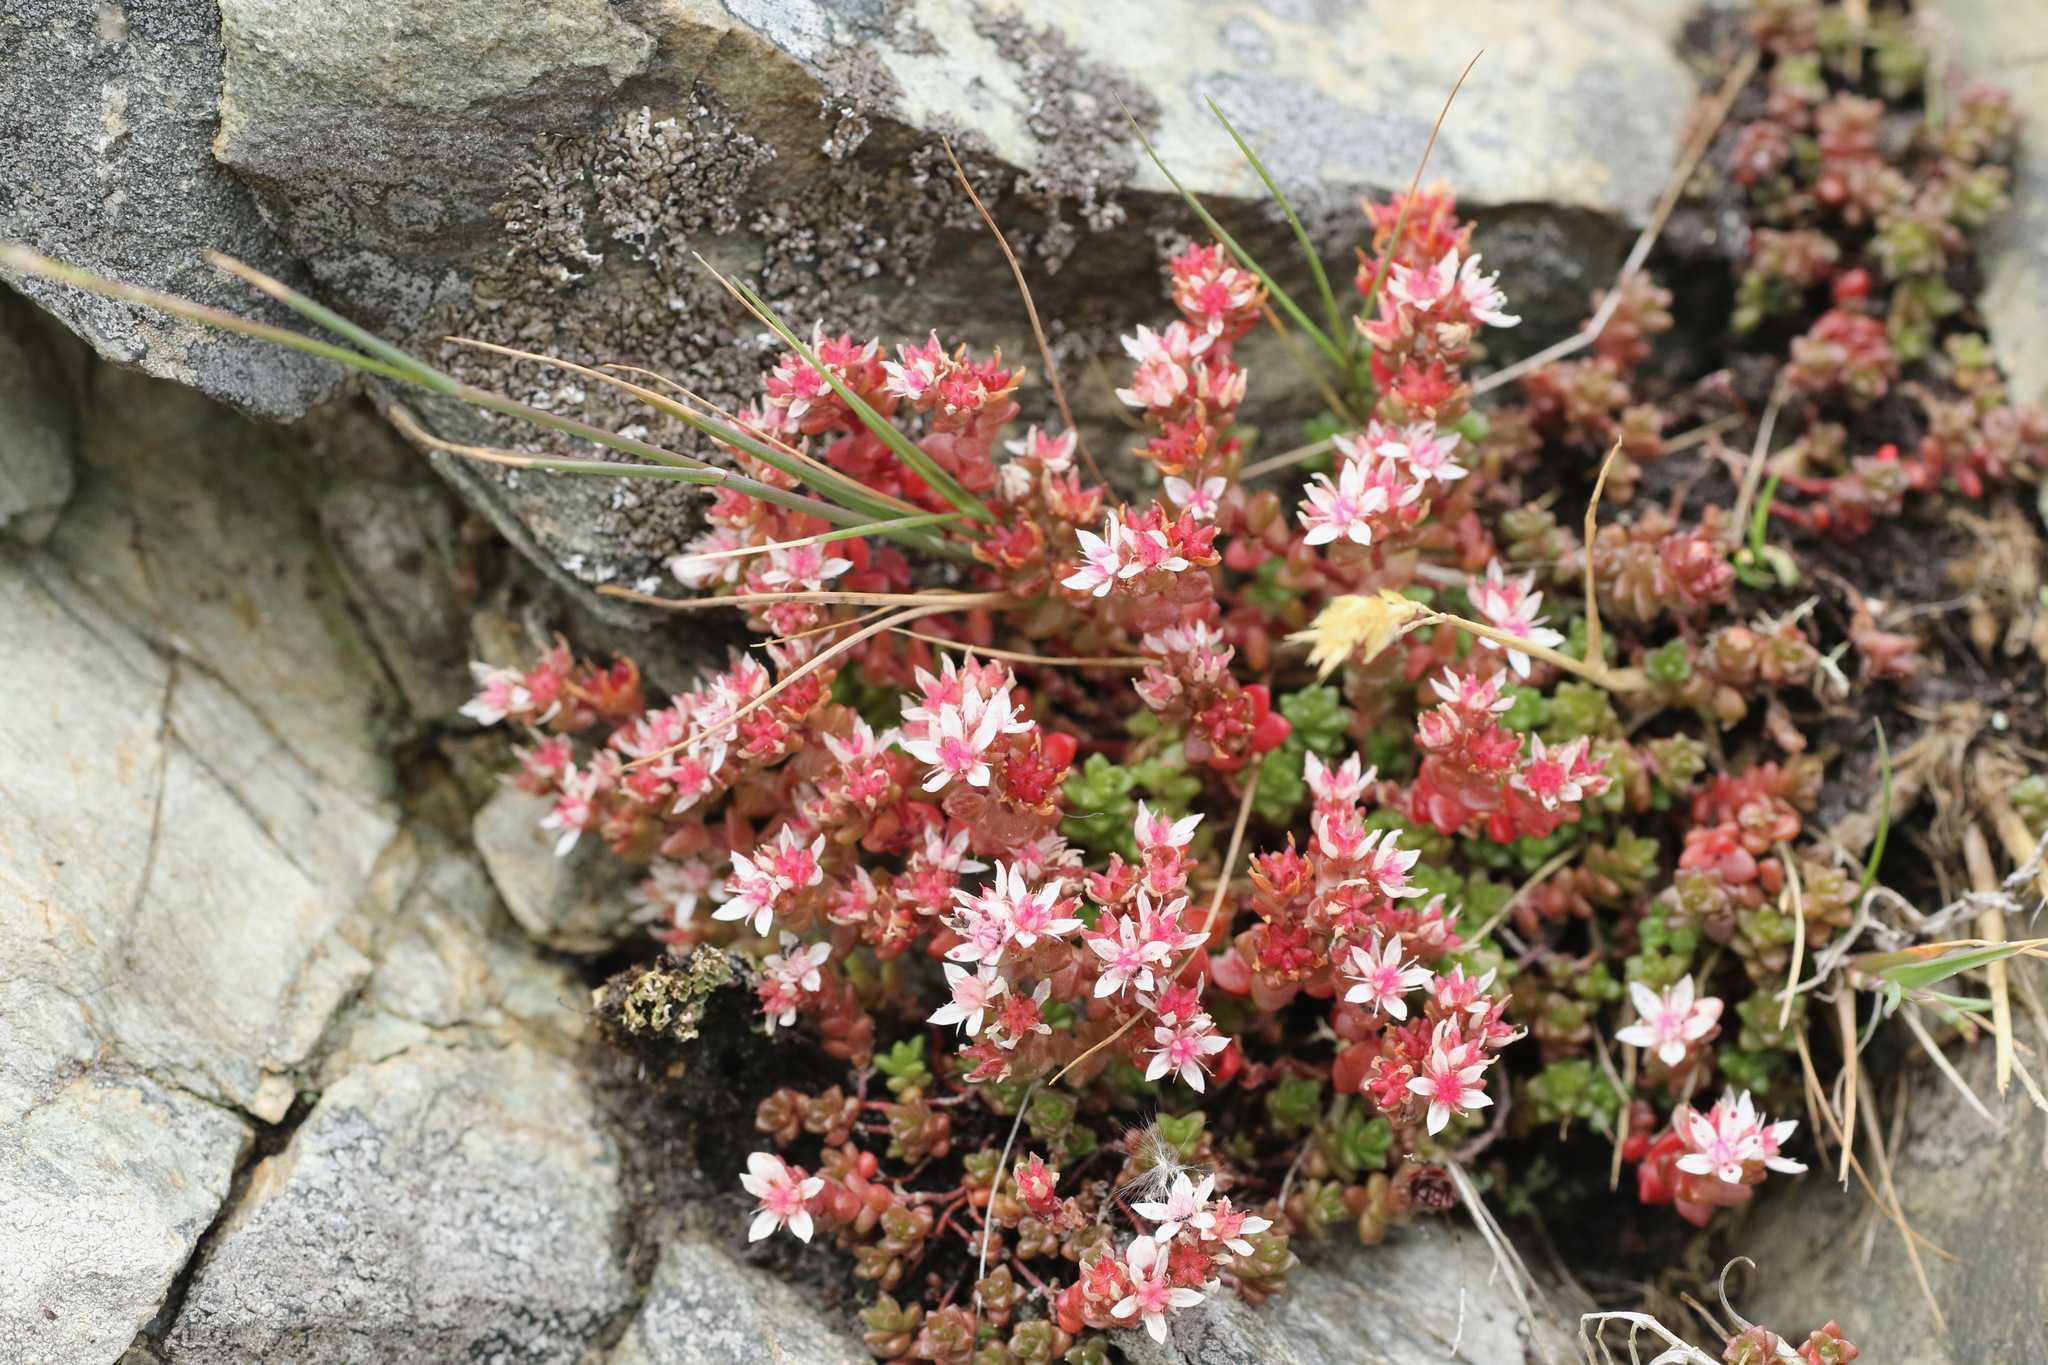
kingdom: Plantae
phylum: Tracheophyta
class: Magnoliopsida
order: Saxifragales
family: Crassulaceae
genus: Sedum
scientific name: Sedum anglicum
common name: English stonecrop
